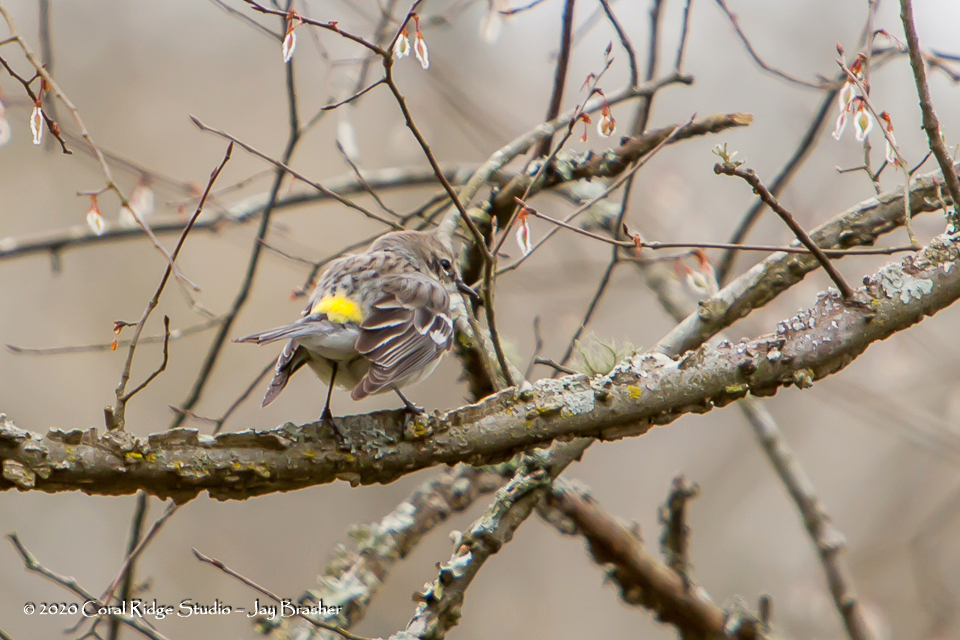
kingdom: Animalia
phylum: Chordata
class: Aves
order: Passeriformes
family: Parulidae
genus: Setophaga
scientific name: Setophaga coronata
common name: Myrtle warbler
